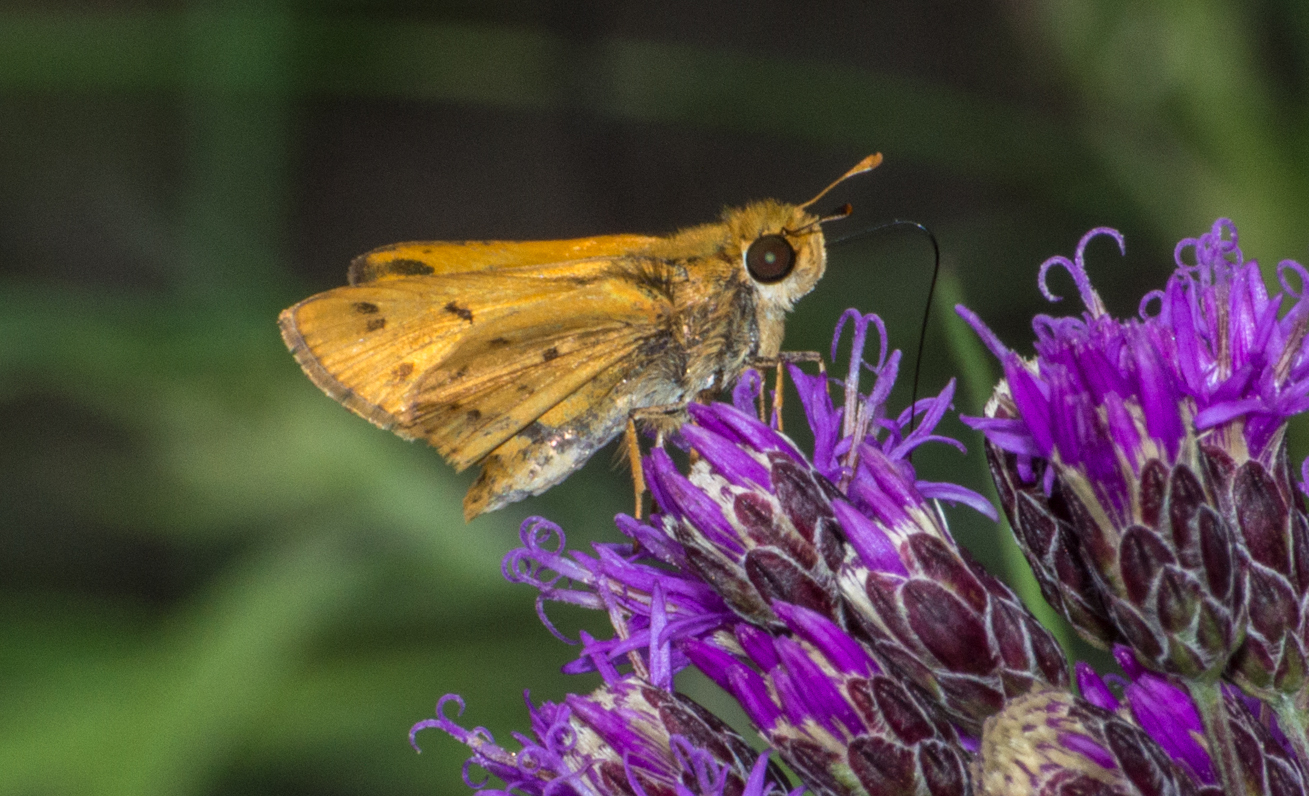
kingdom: Animalia
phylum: Arthropoda
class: Insecta
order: Lepidoptera
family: Hesperiidae
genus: Hylephila
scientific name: Hylephila phyleus
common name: Fiery skipper
